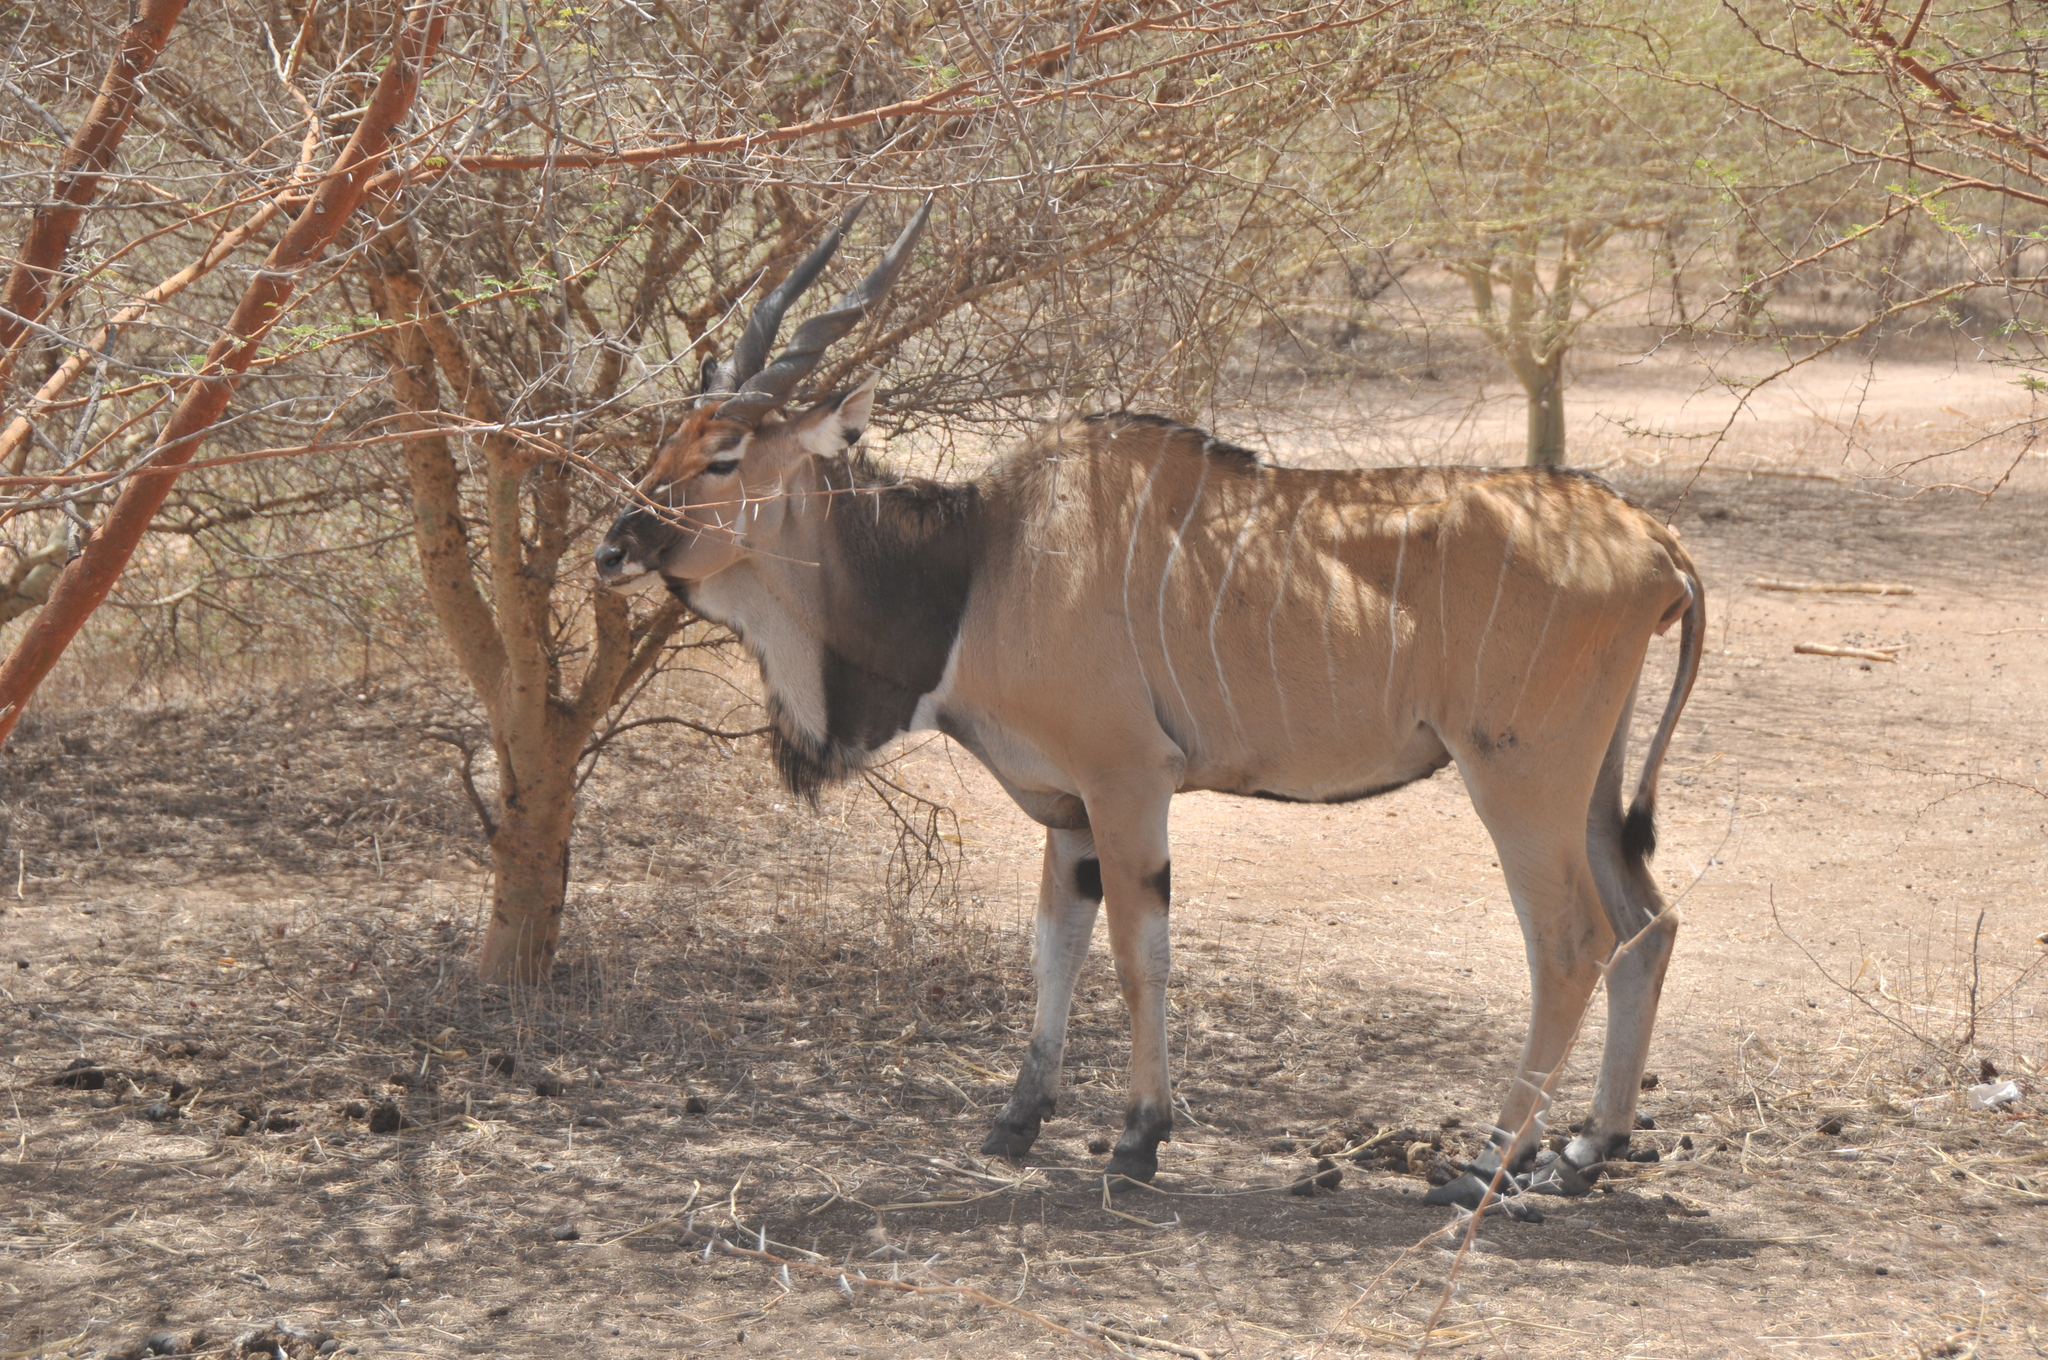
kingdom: Animalia
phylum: Chordata
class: Mammalia
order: Artiodactyla
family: Bovidae
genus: Tragelaphus
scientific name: Tragelaphus derbianus
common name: Giant eland
